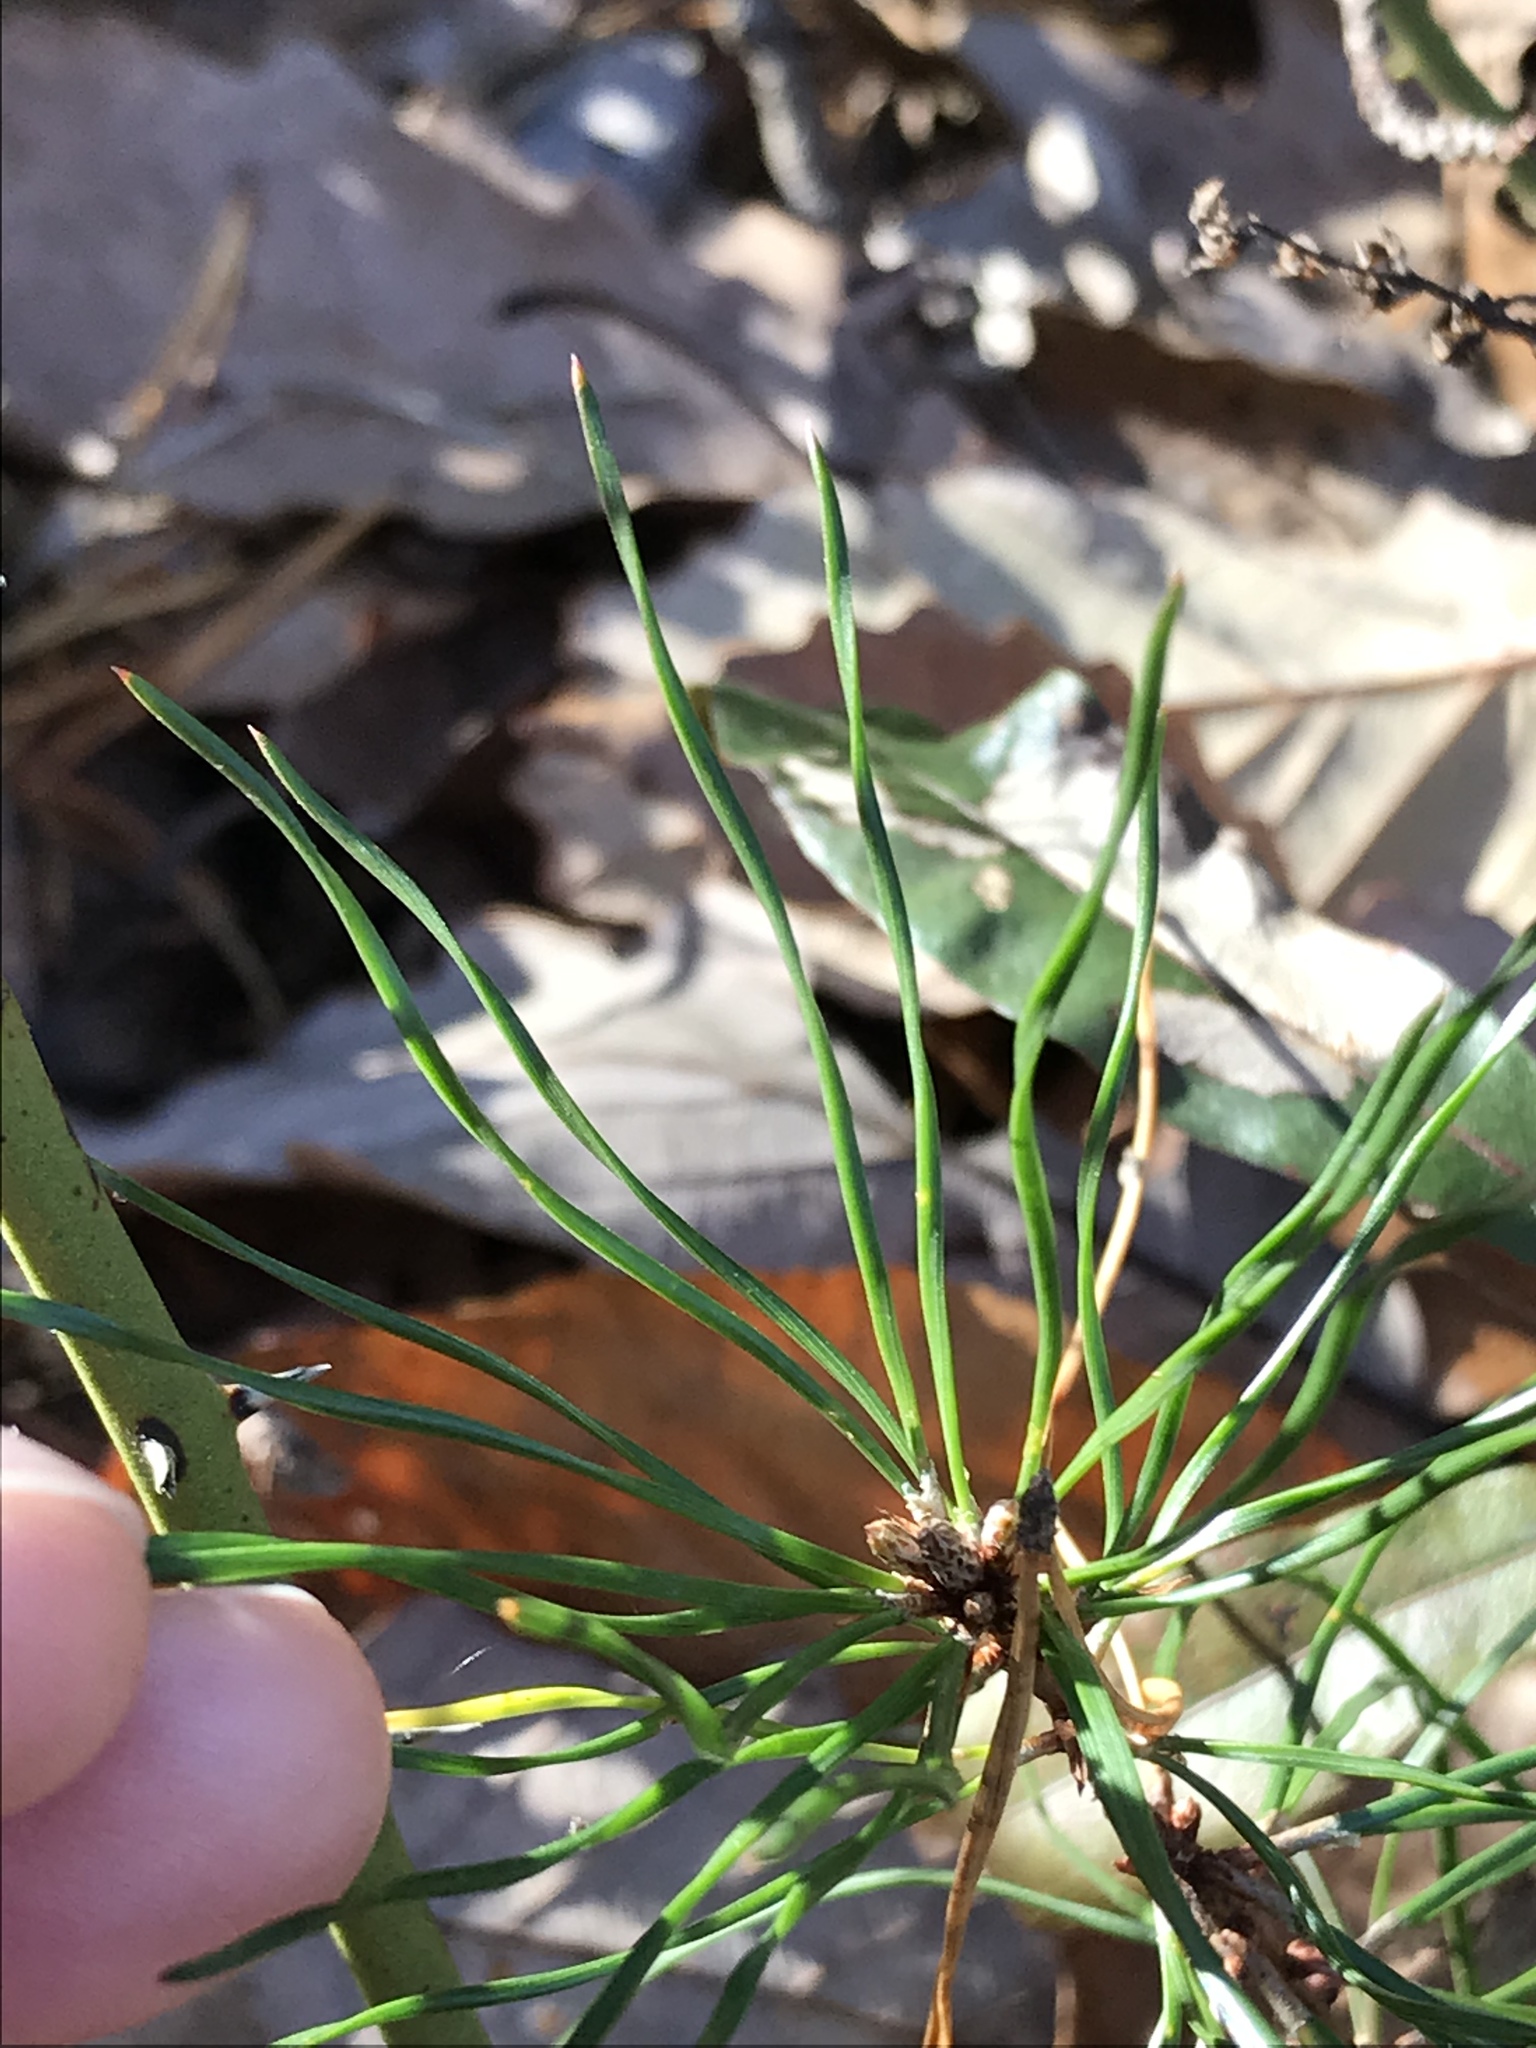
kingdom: Plantae
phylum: Tracheophyta
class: Pinopsida
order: Pinales
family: Pinaceae
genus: Pinus
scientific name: Pinus virginiana
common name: Scrub pine
